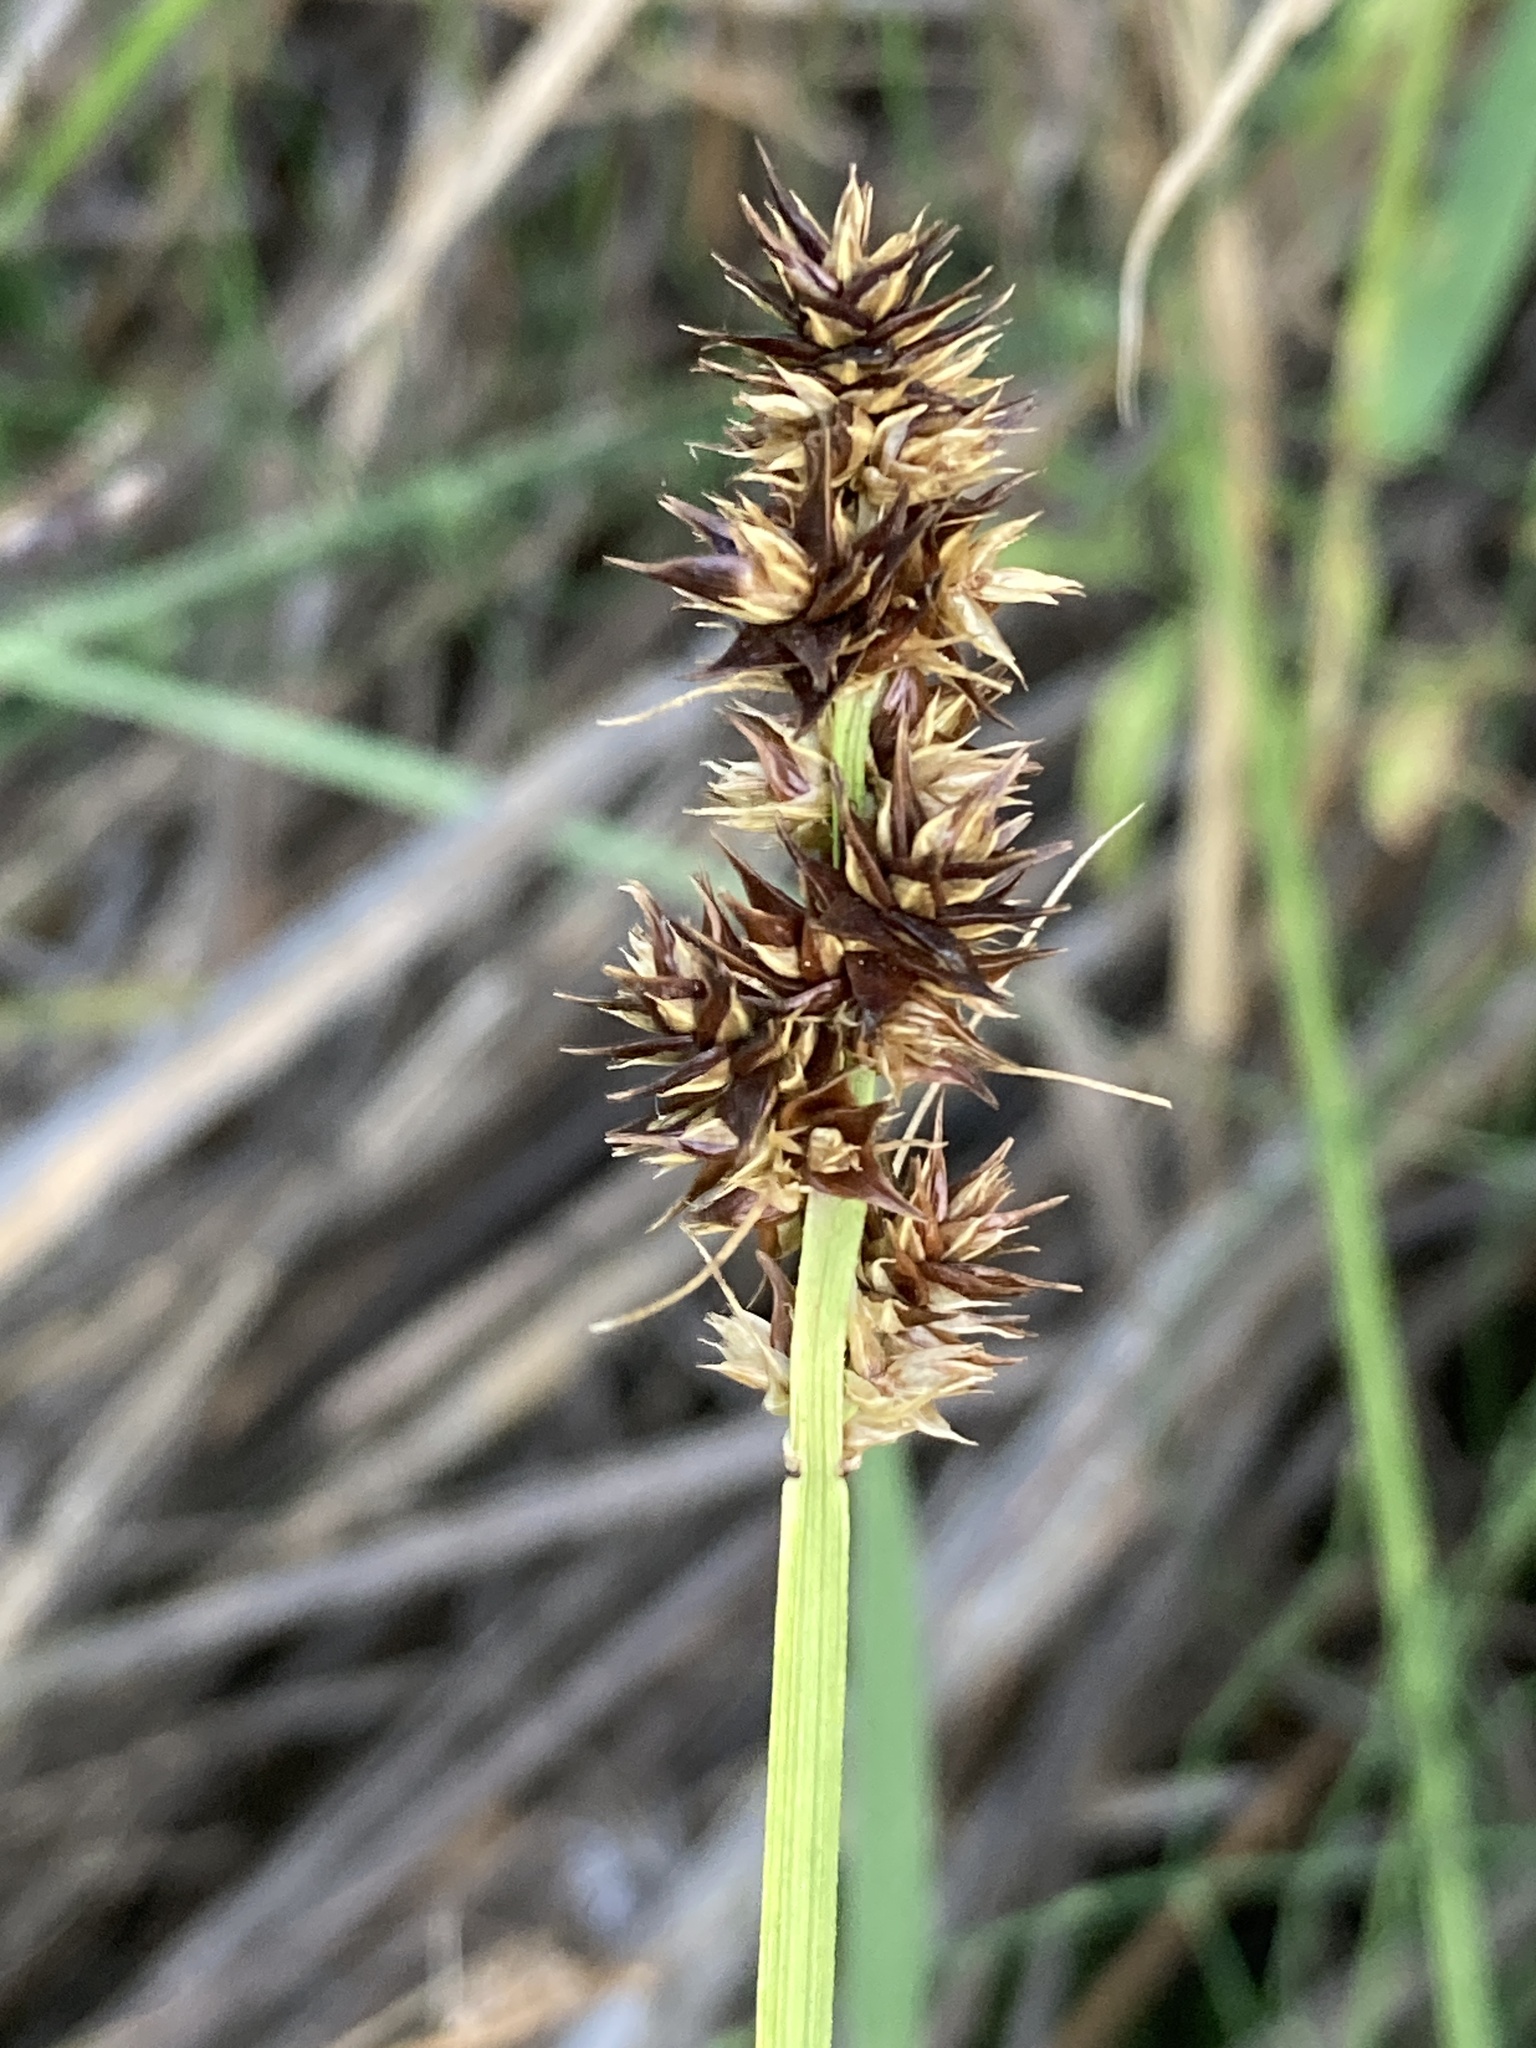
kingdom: Plantae
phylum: Tracheophyta
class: Liliopsida
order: Poales
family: Cyperaceae
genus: Carex
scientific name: Carex vulpina
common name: True fox-sedge
